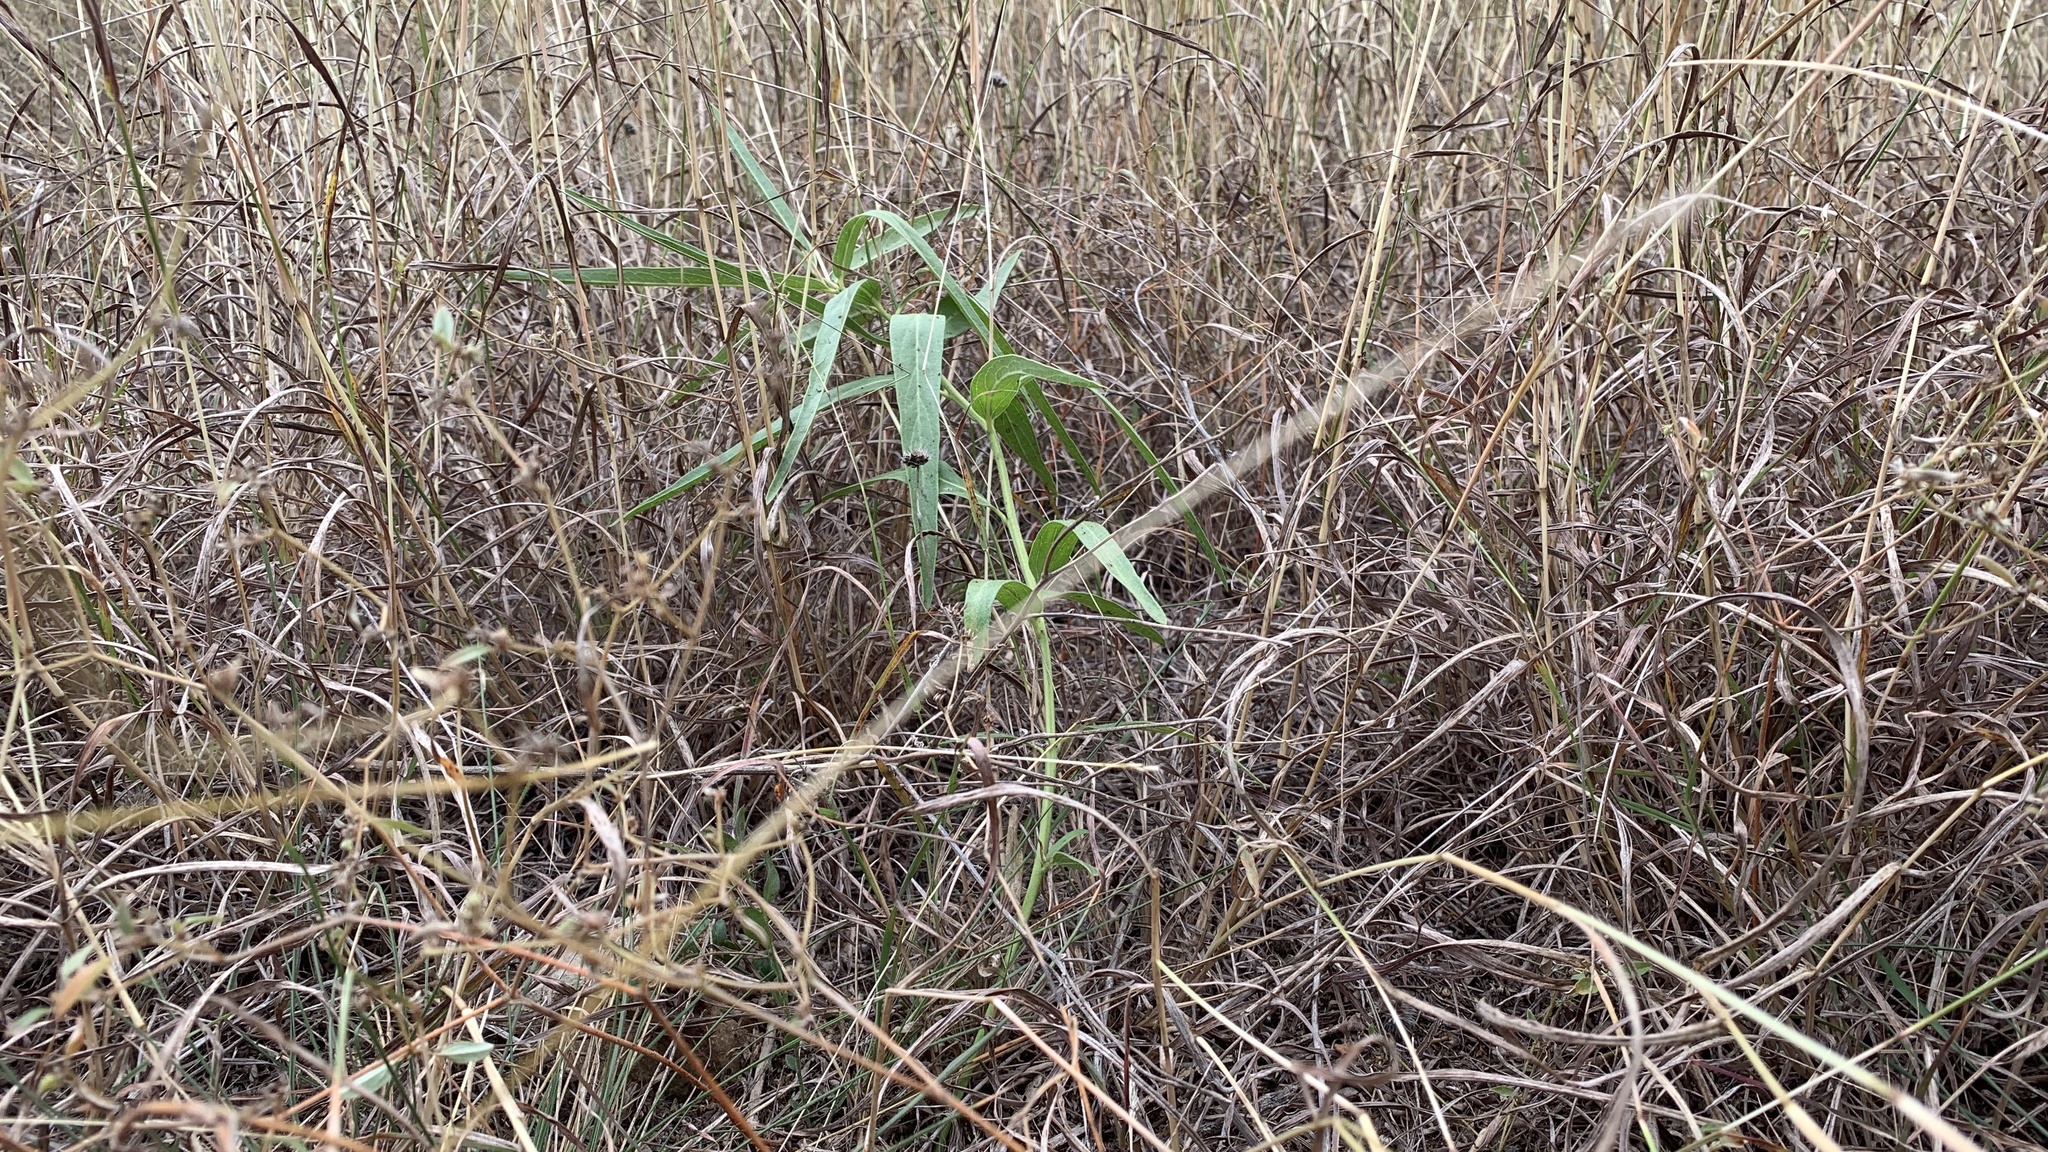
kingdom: Plantae
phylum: Tracheophyta
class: Magnoliopsida
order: Gentianales
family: Apocynaceae
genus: Asclepias
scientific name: Asclepias asperula
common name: Antelope horns
